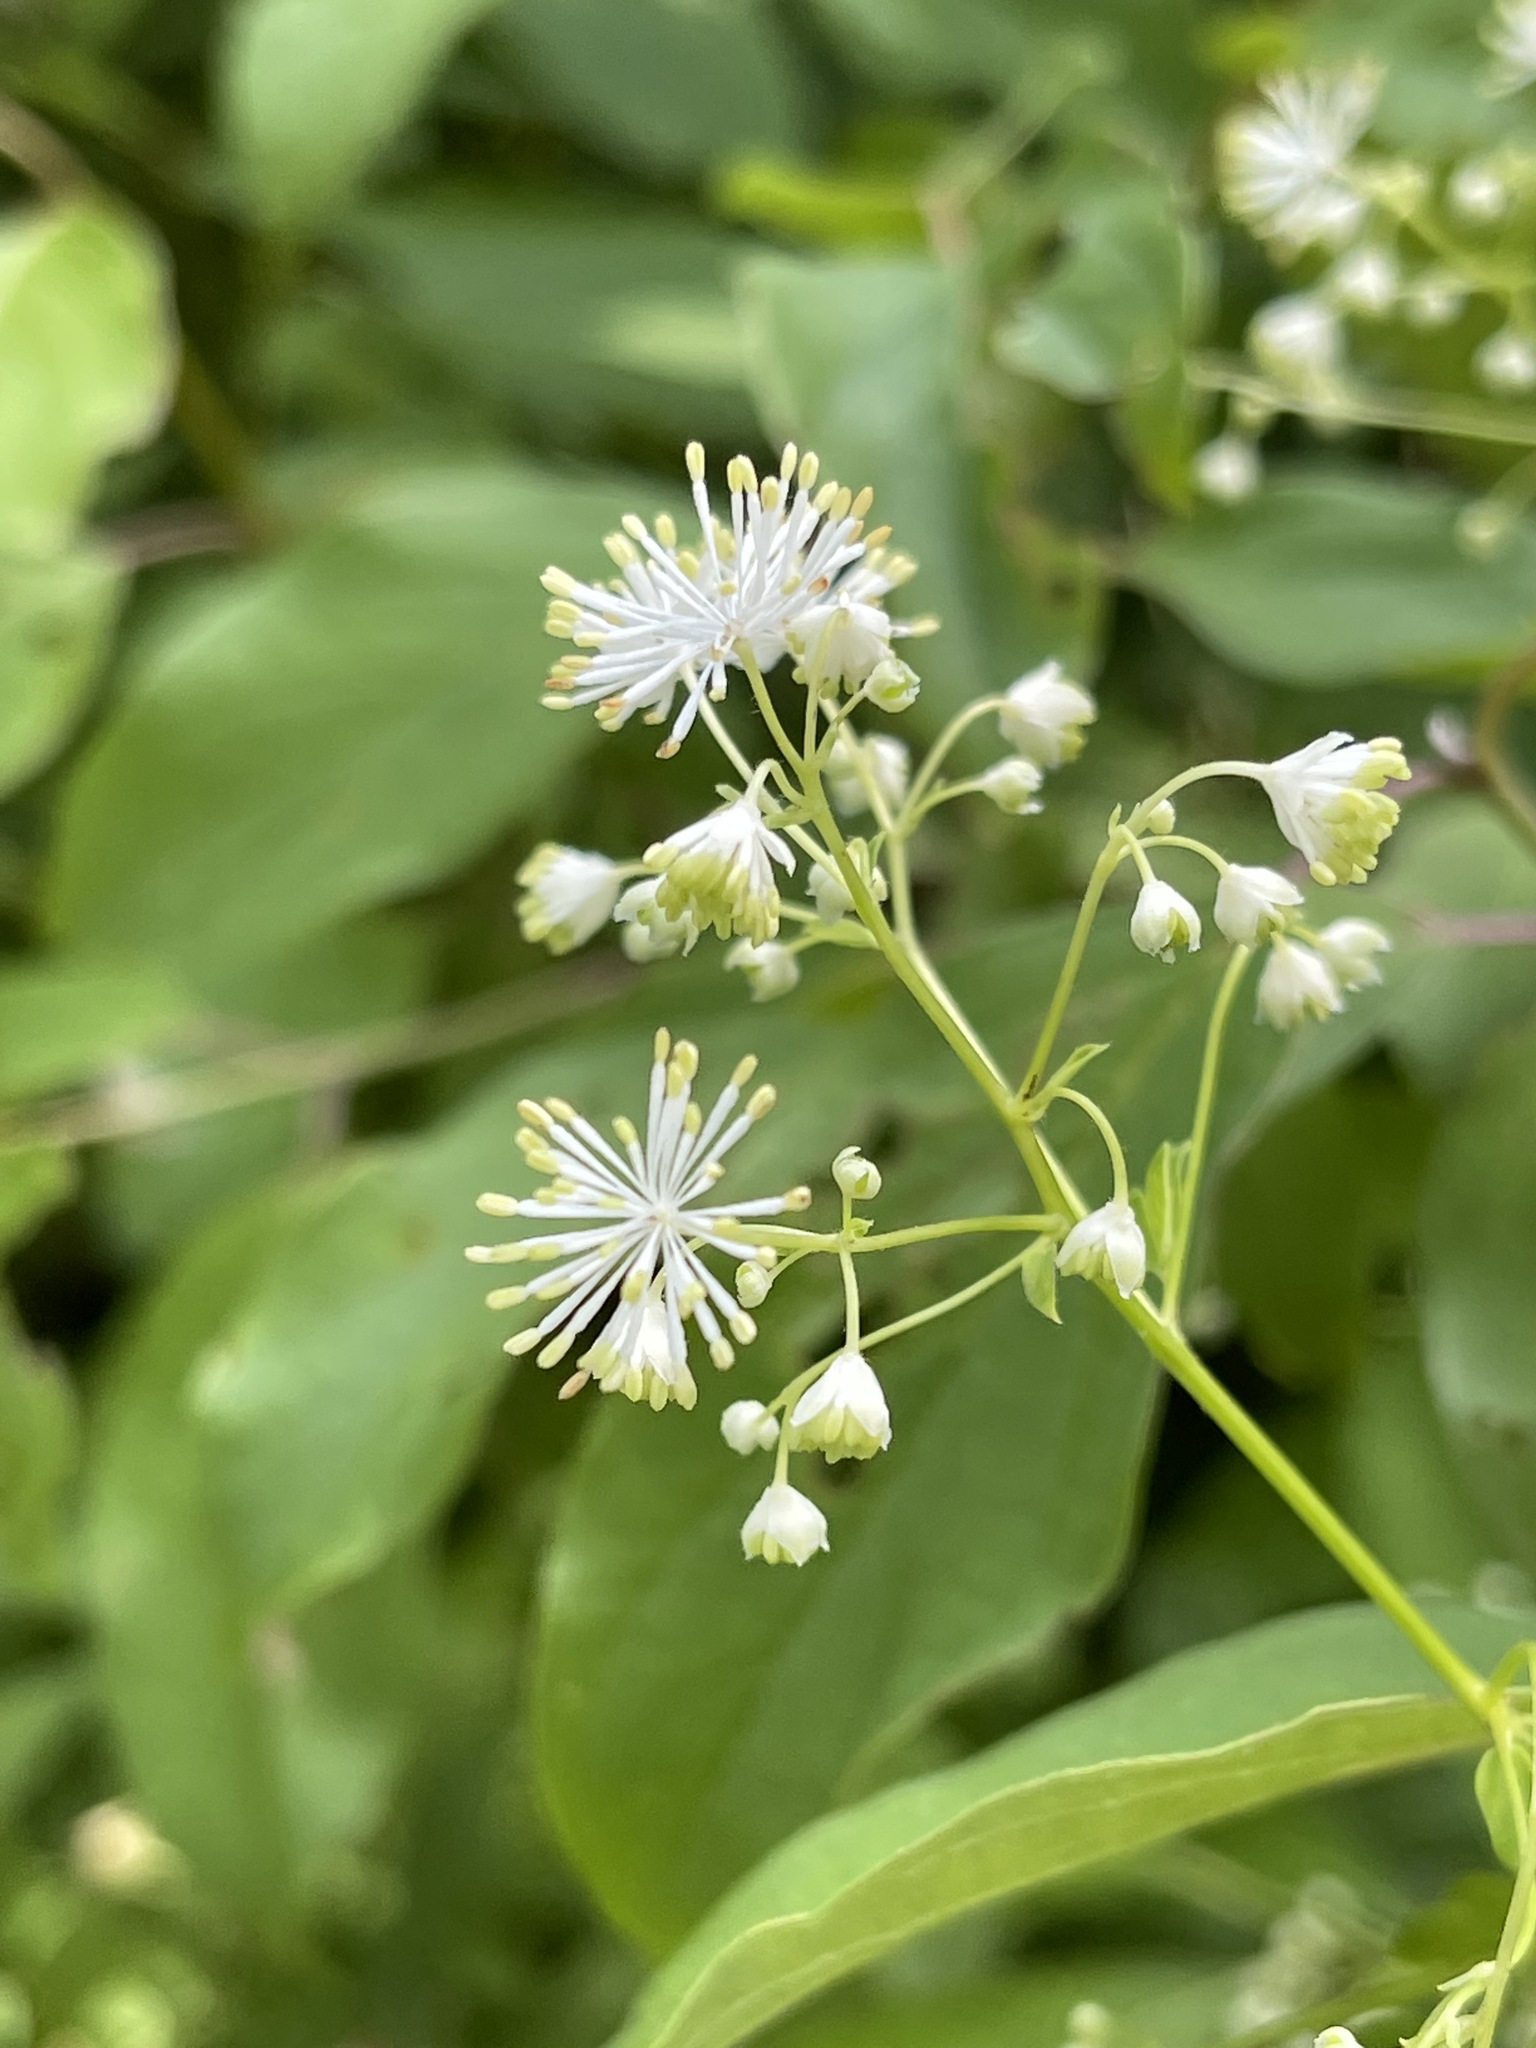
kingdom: Plantae
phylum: Tracheophyta
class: Magnoliopsida
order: Ranunculales
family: Ranunculaceae
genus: Thalictrum
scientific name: Thalictrum pubescens
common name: King-of-the-meadow
